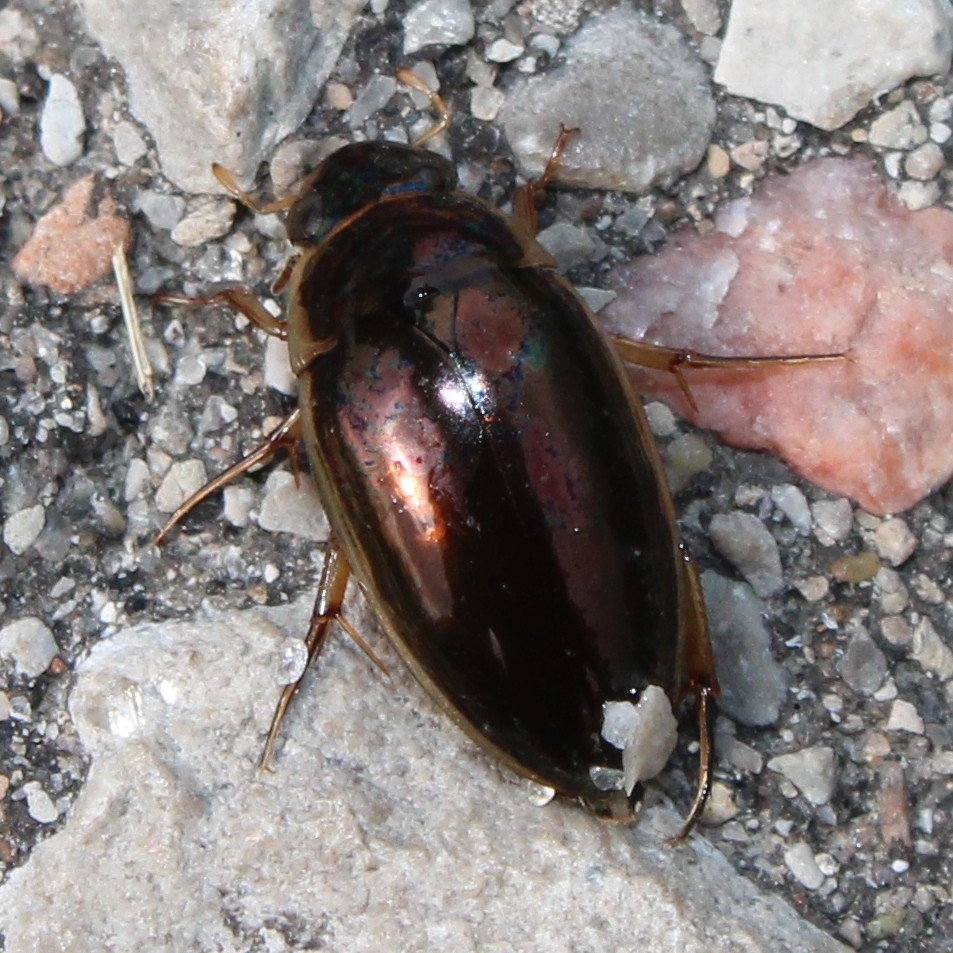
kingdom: Animalia
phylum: Arthropoda
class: Insecta
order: Coleoptera
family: Hydrophilidae
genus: Tropisternus
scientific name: Tropisternus lateralis
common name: Lateral-banded water scavenger beetle
